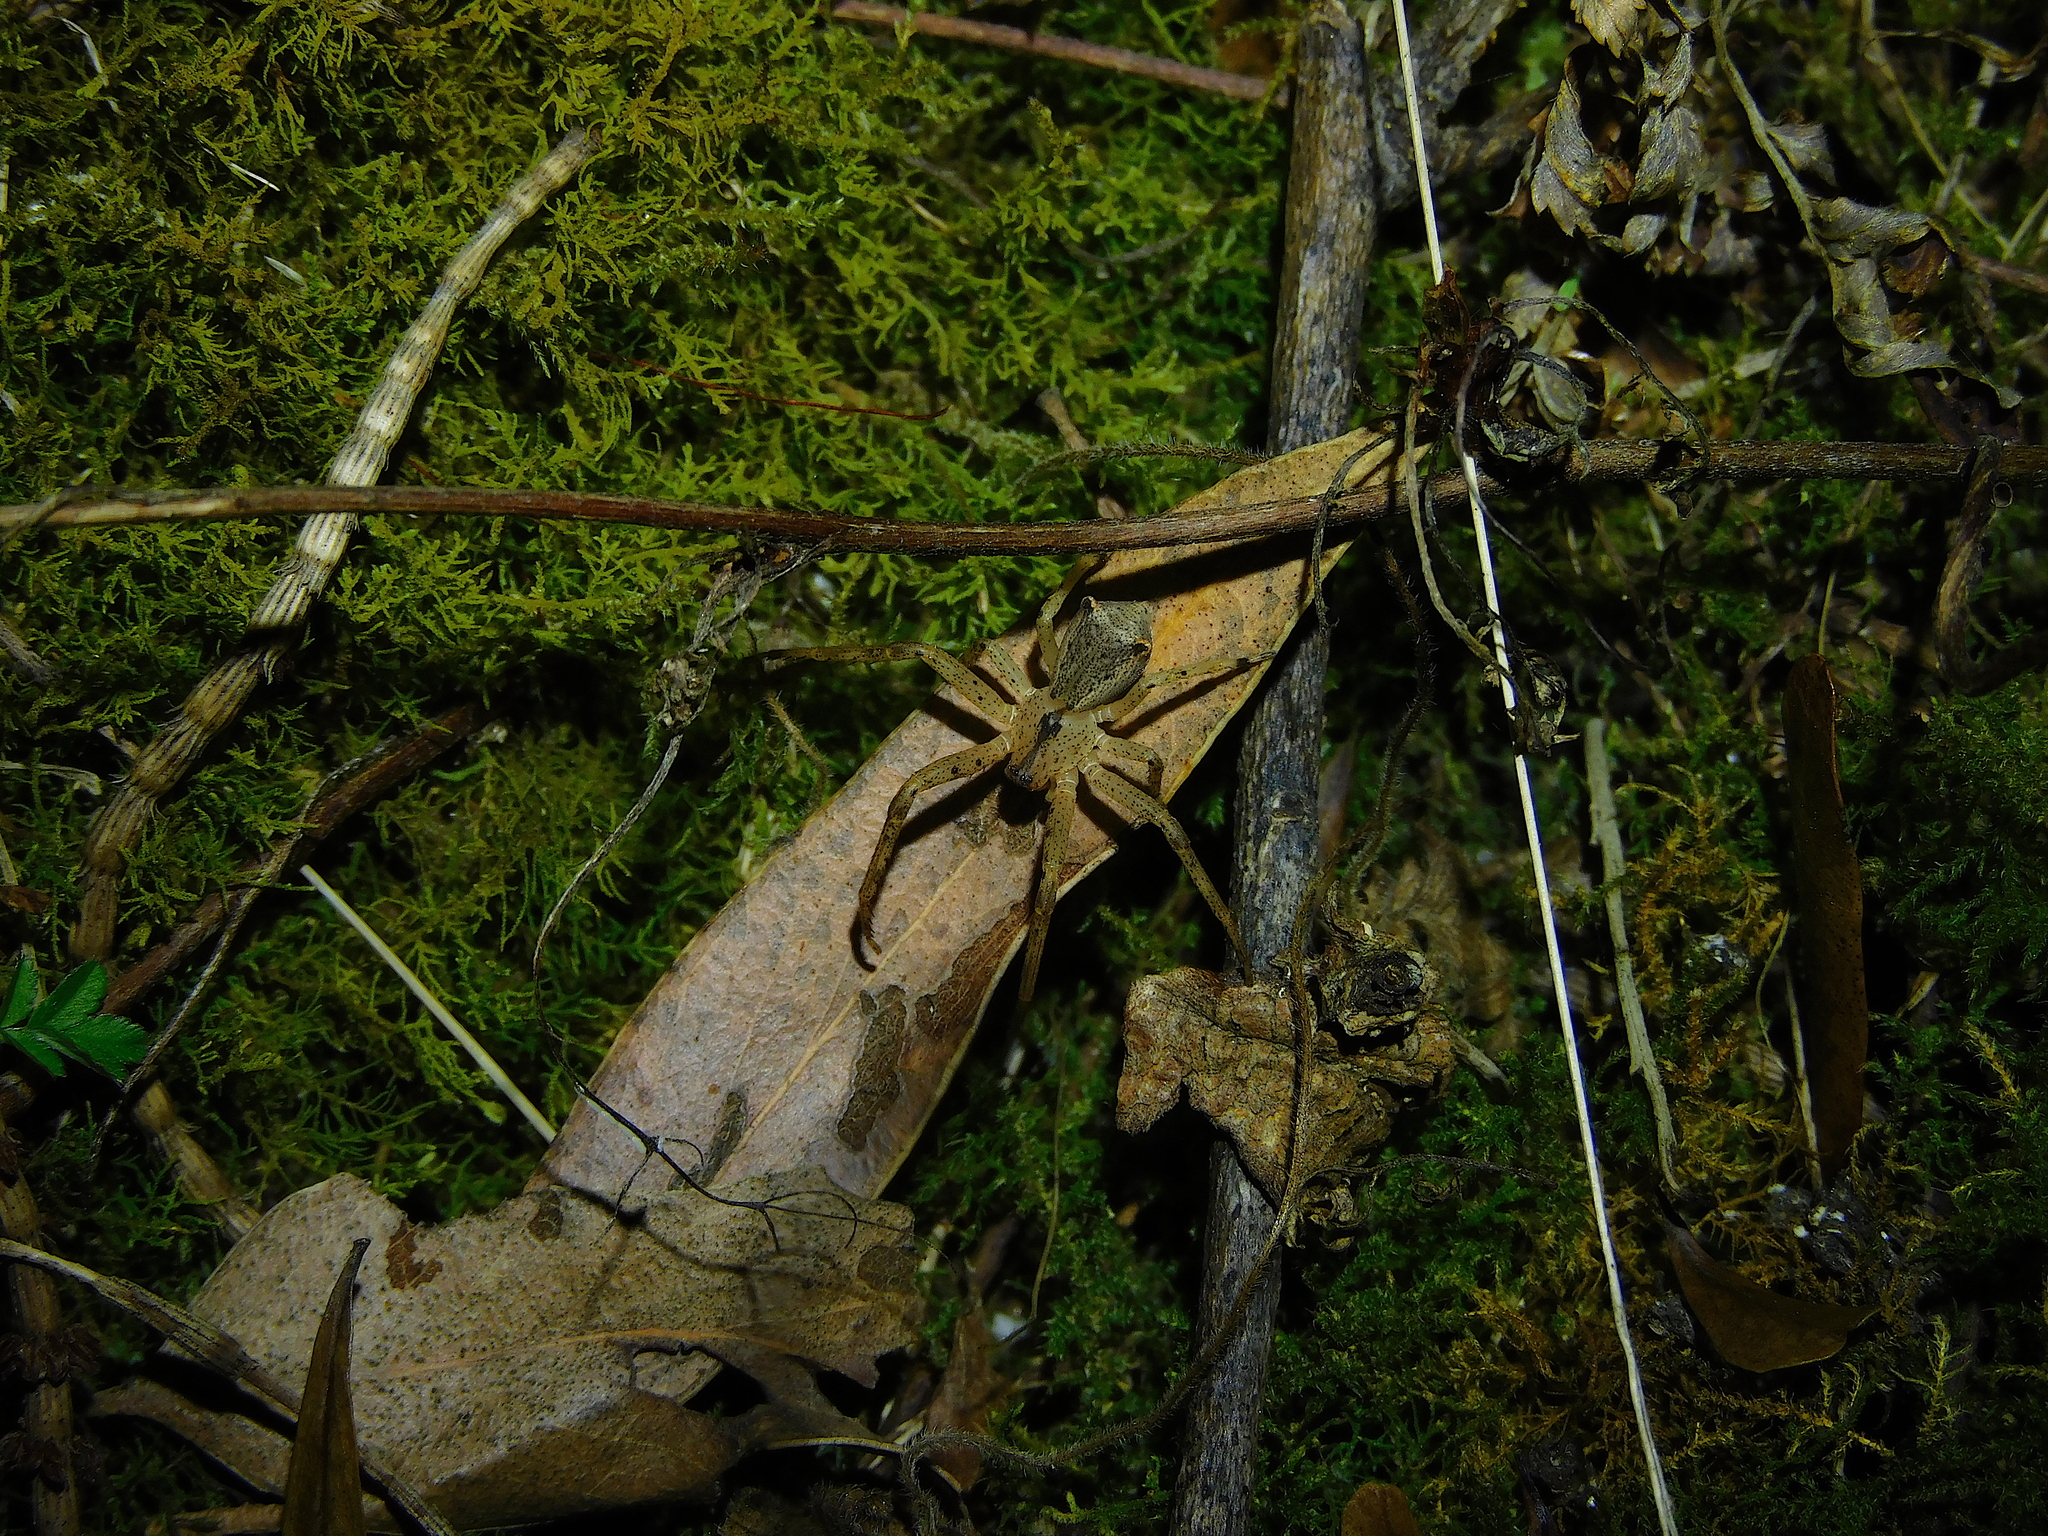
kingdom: Animalia
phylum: Arthropoda
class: Arachnida
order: Araneae
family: Thomisidae
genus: Sidymella
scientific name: Sidymella trapezia
